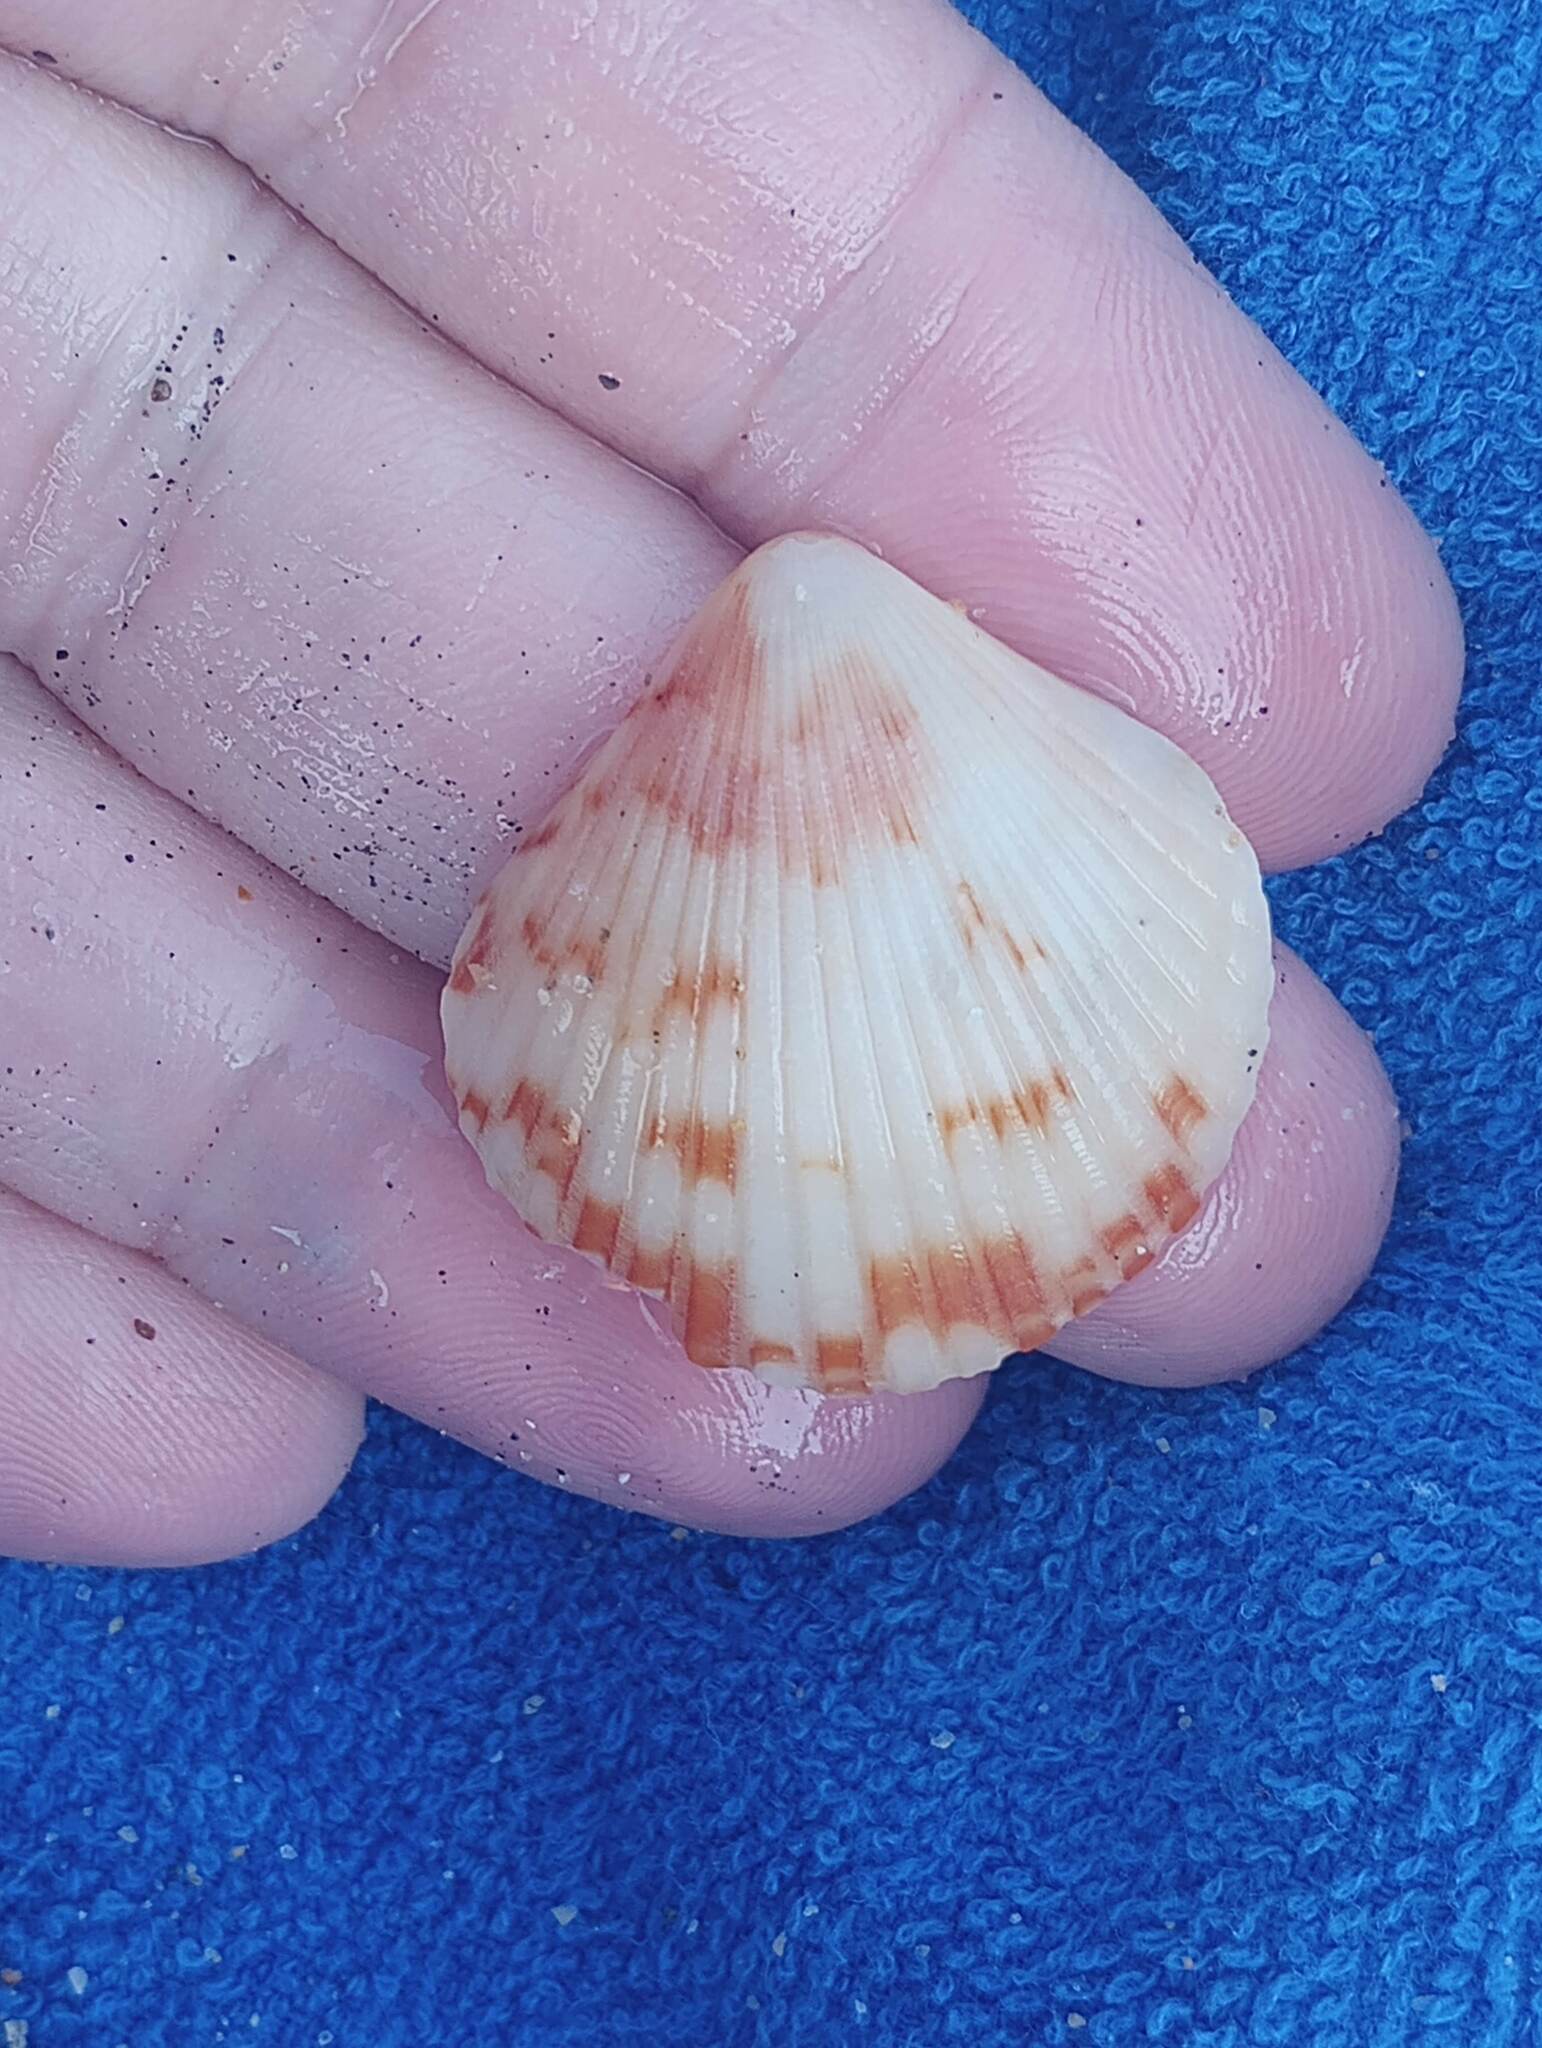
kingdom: Animalia
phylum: Mollusca
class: Bivalvia
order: Pectinida
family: Pectinidae
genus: Argopecten
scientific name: Argopecten ventricosus
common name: Catarina scallop
